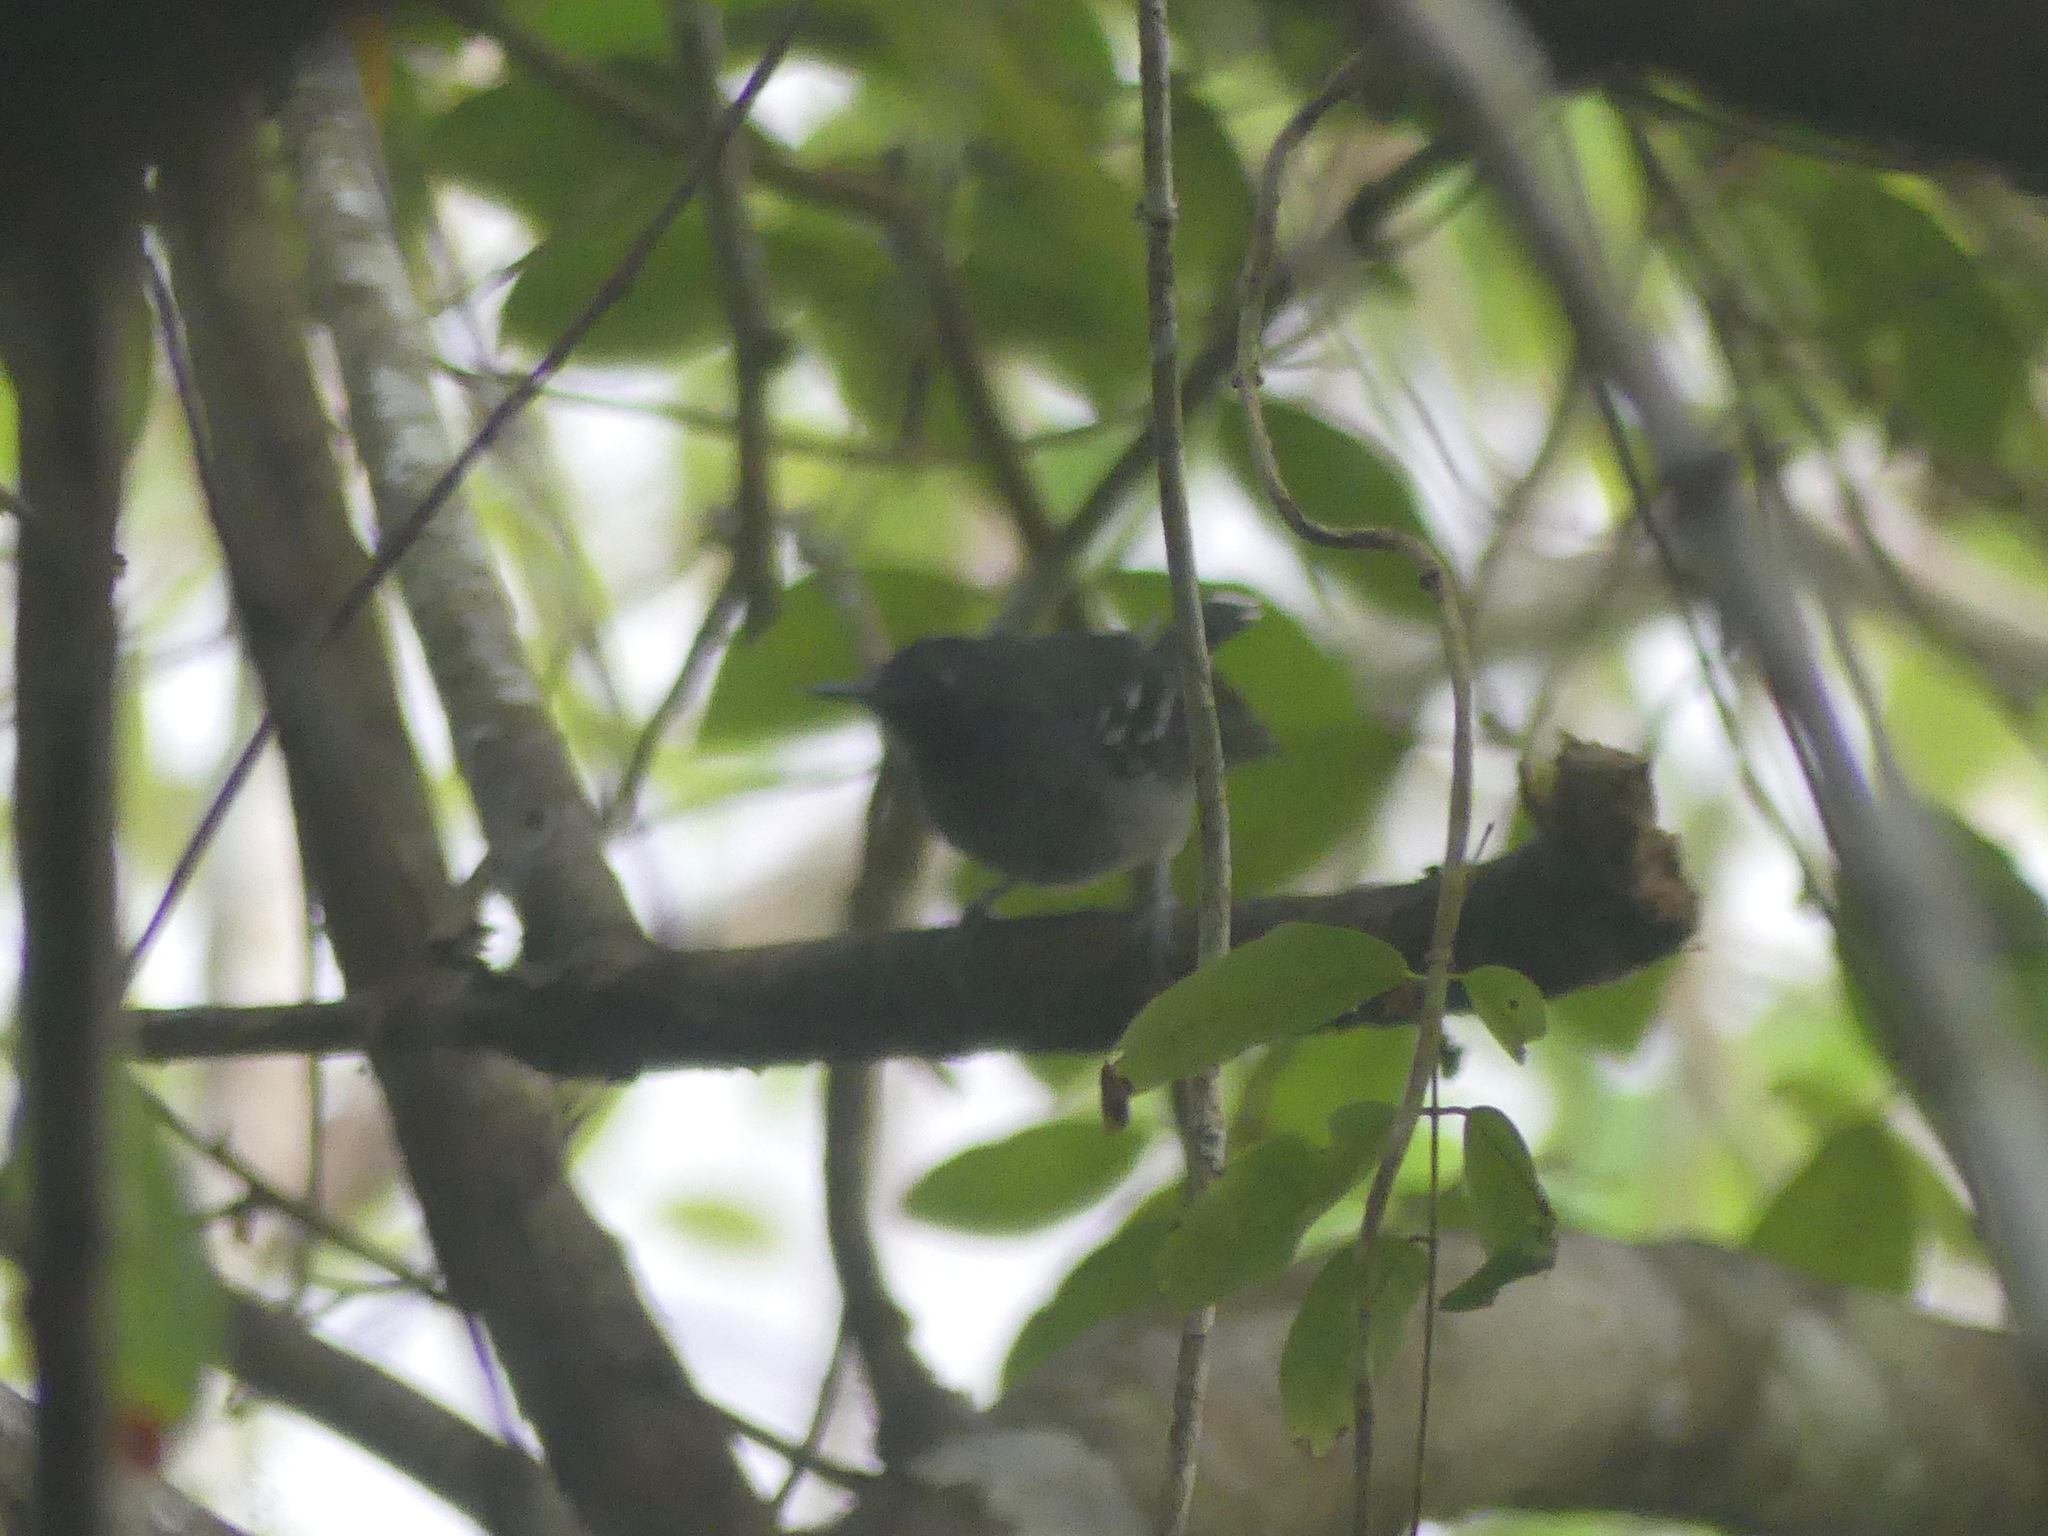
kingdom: Animalia
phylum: Chordata
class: Aves
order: Passeriformes
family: Thamnophilidae
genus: Hypocnemoides
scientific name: Hypocnemoides maculicauda
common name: Band-tailed antbird
